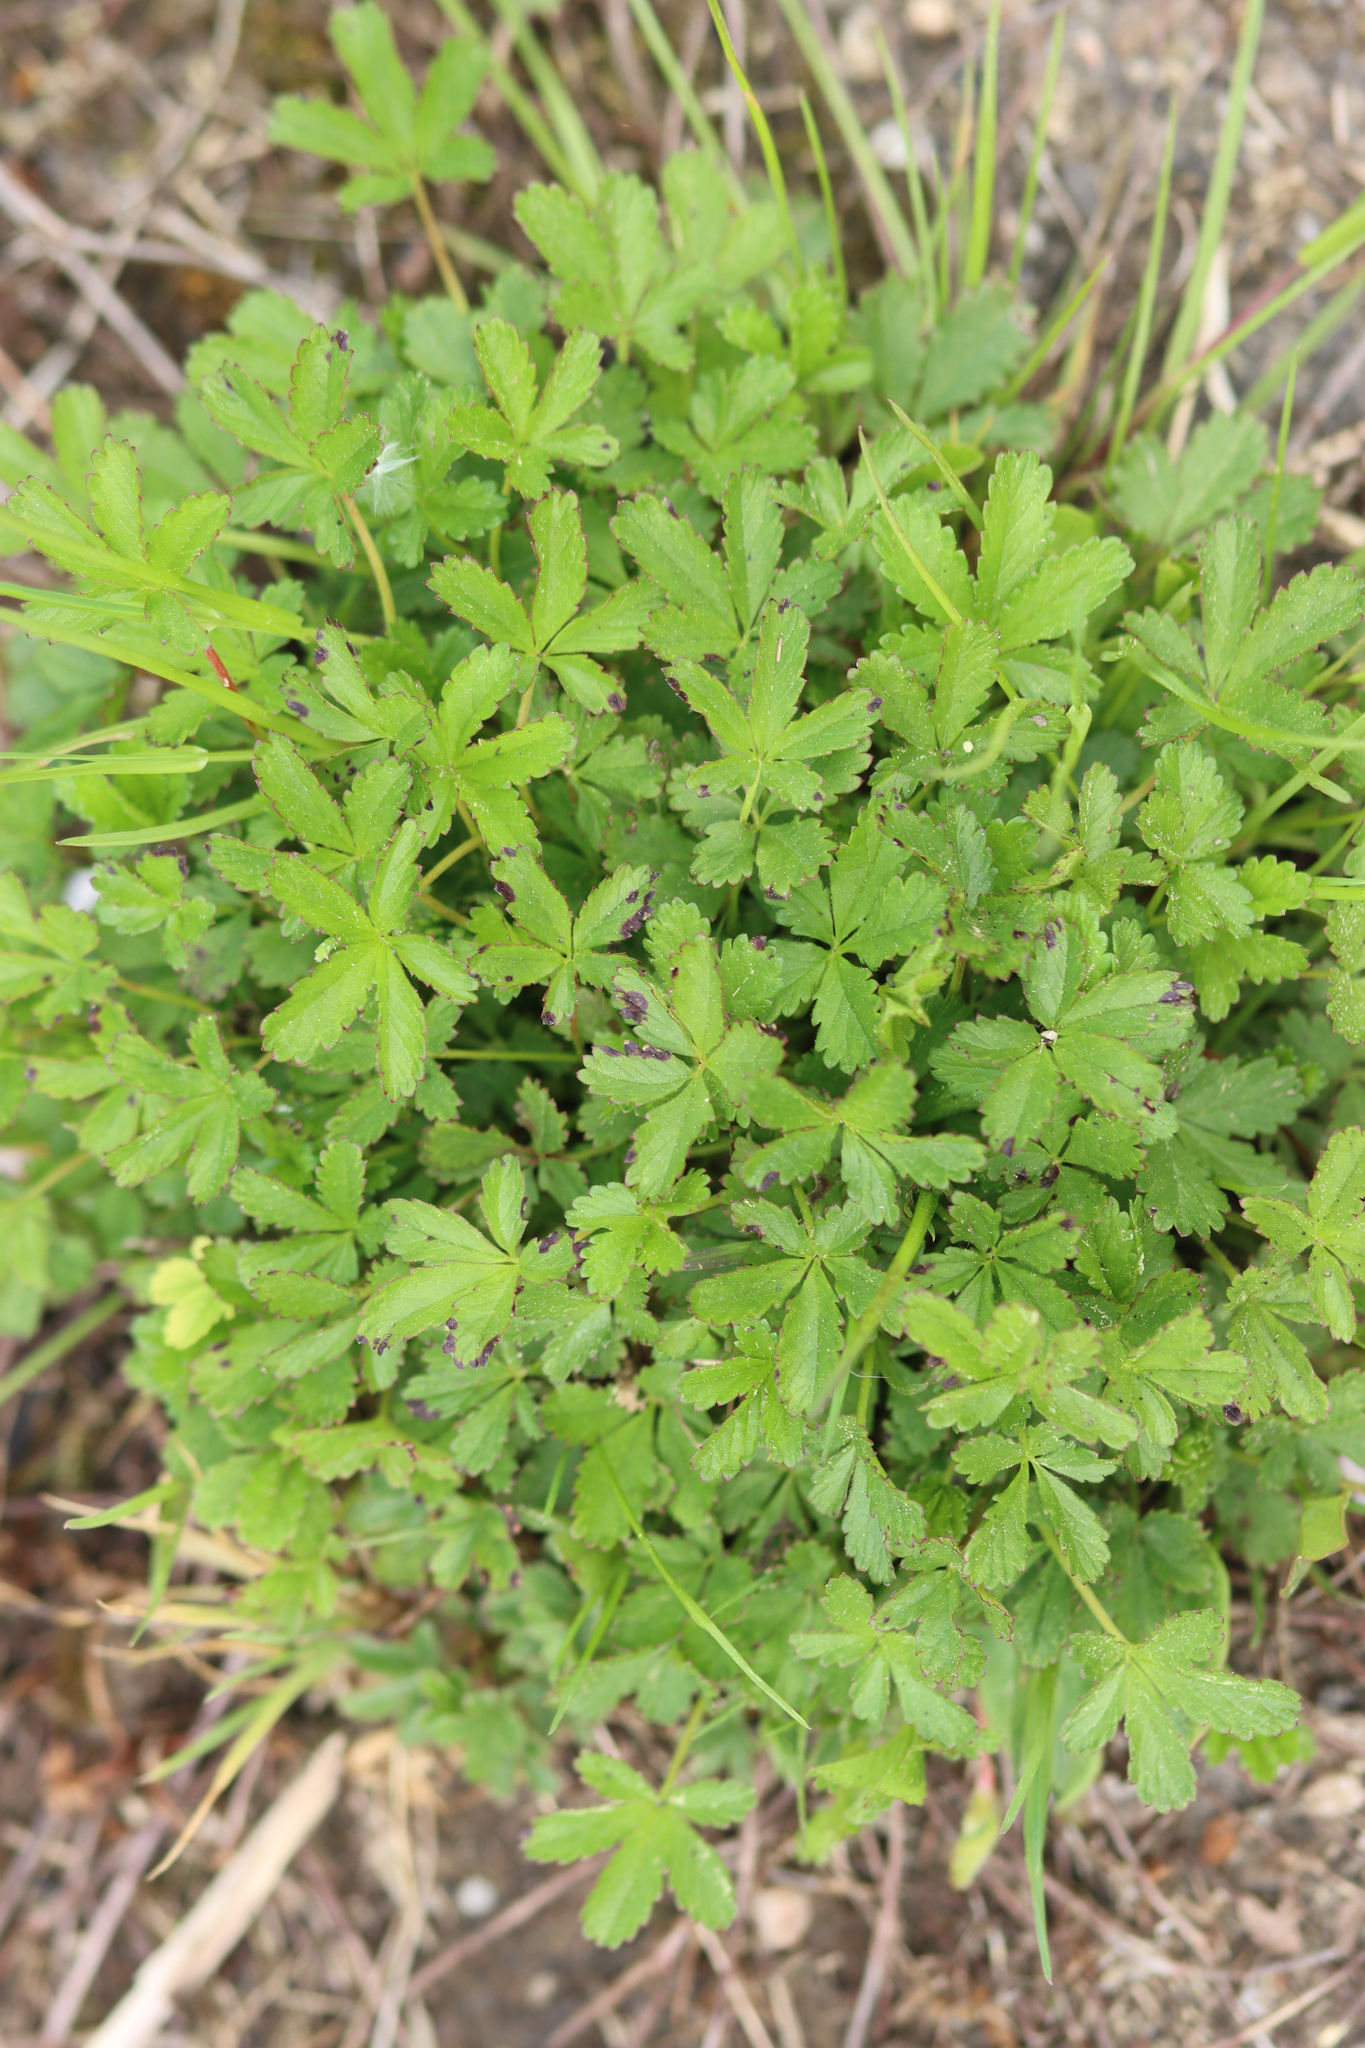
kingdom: Plantae
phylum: Tracheophyta
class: Magnoliopsida
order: Rosales
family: Rosaceae
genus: Potentilla
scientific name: Potentilla reptans
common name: Creeping cinquefoil
